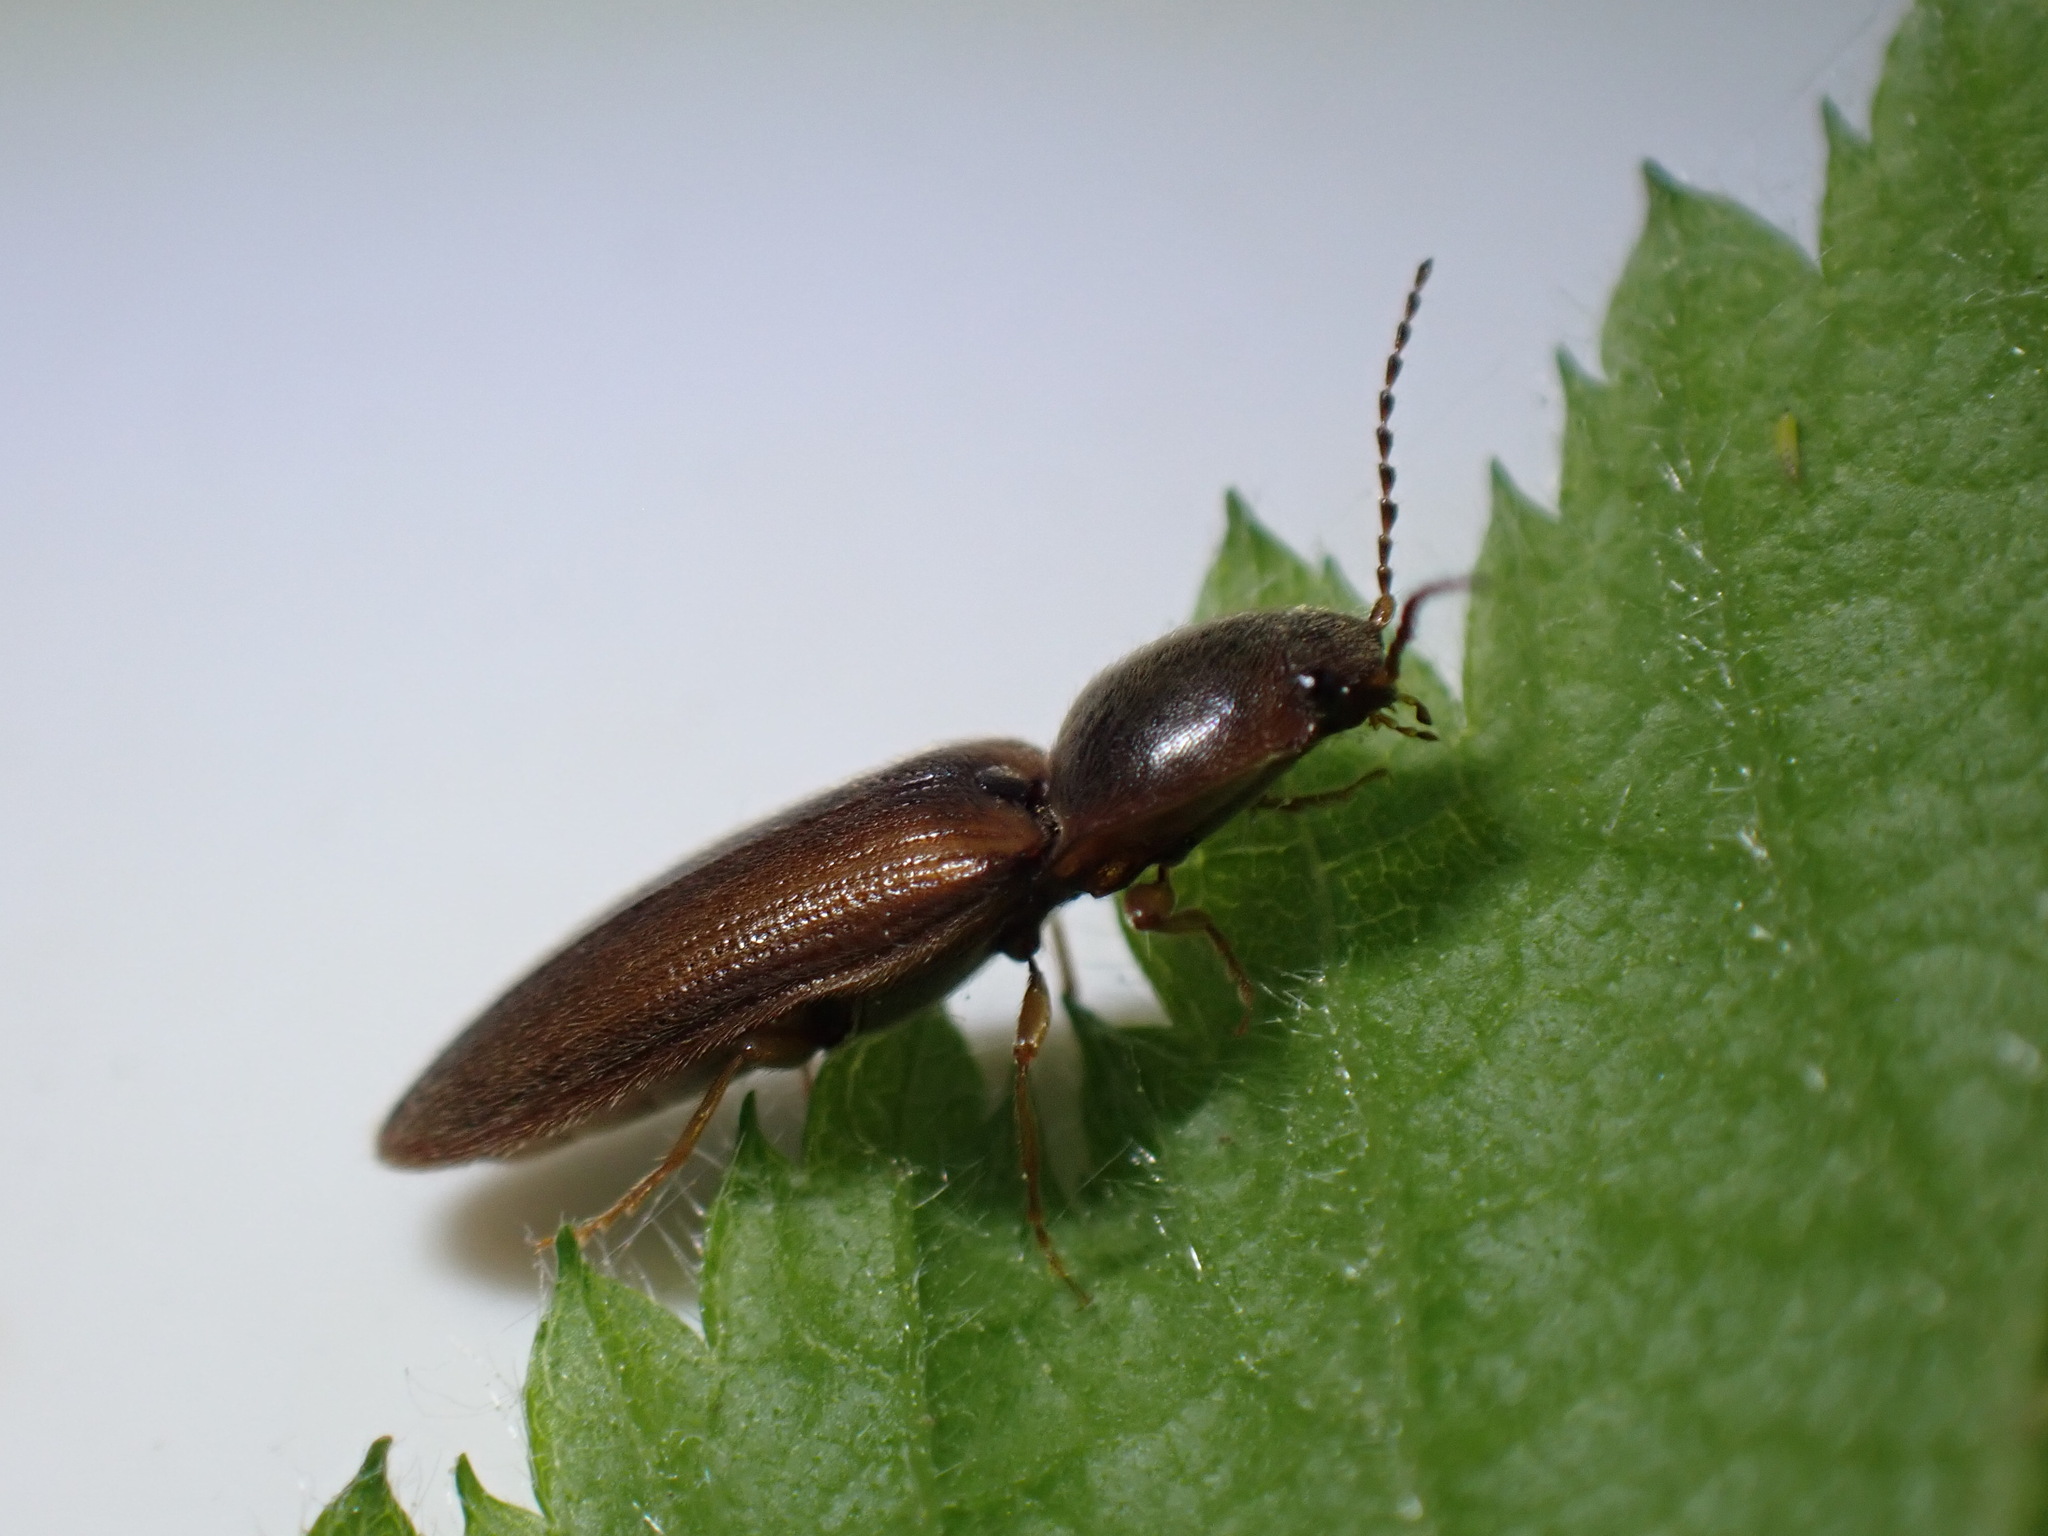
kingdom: Animalia
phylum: Arthropoda
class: Insecta
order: Coleoptera
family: Elateridae
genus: Athous
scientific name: Athous vittatus
